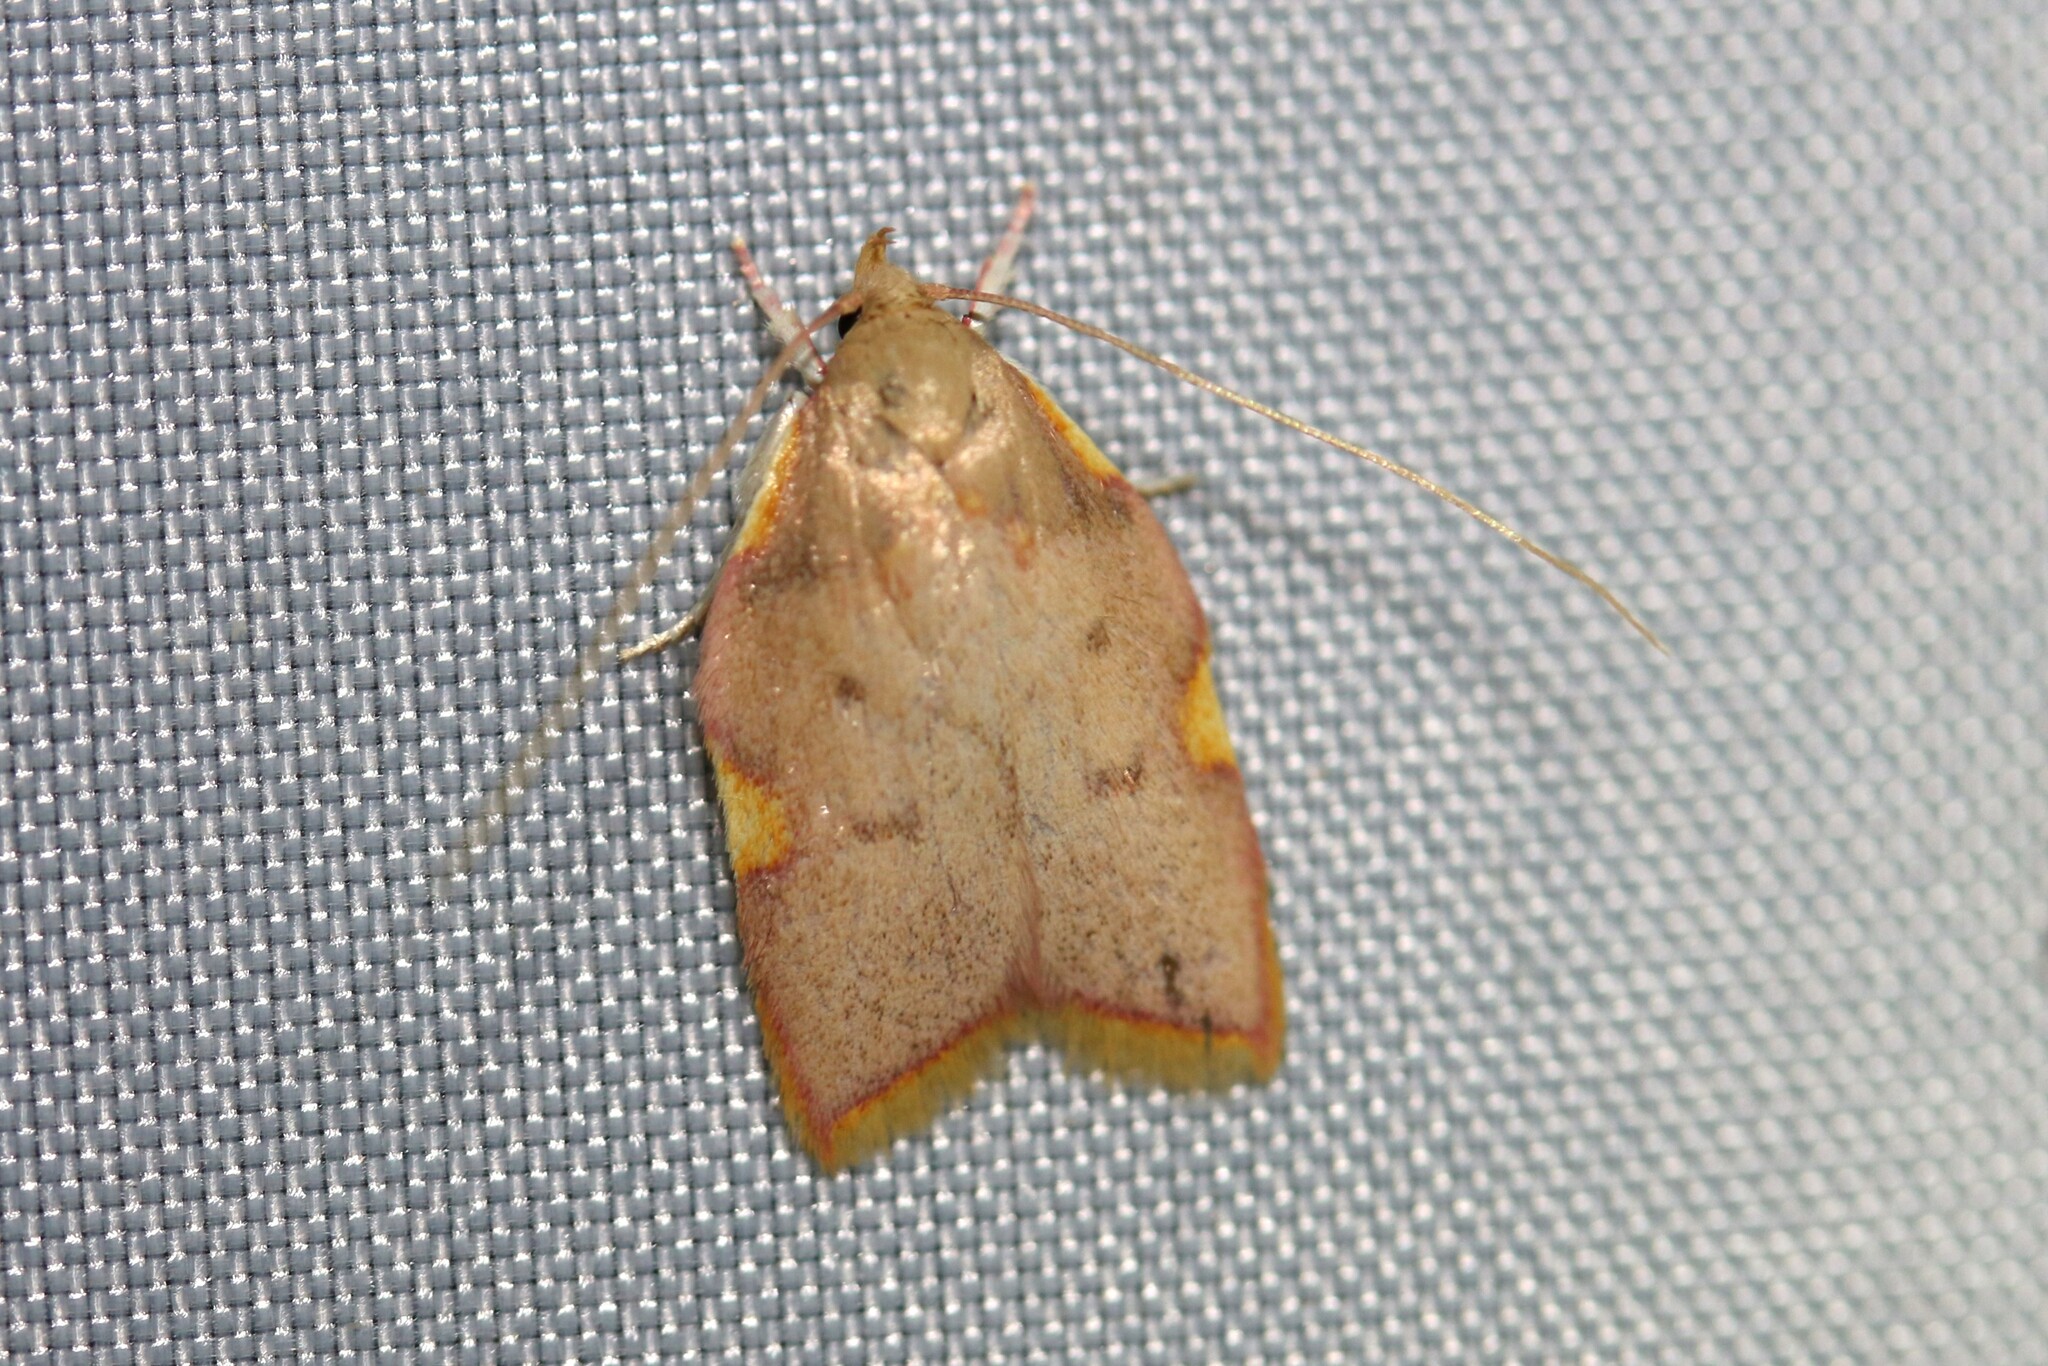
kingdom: Animalia
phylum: Arthropoda
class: Insecta
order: Lepidoptera
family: Peleopodidae
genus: Carcina
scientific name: Carcina quercana
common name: Moth
